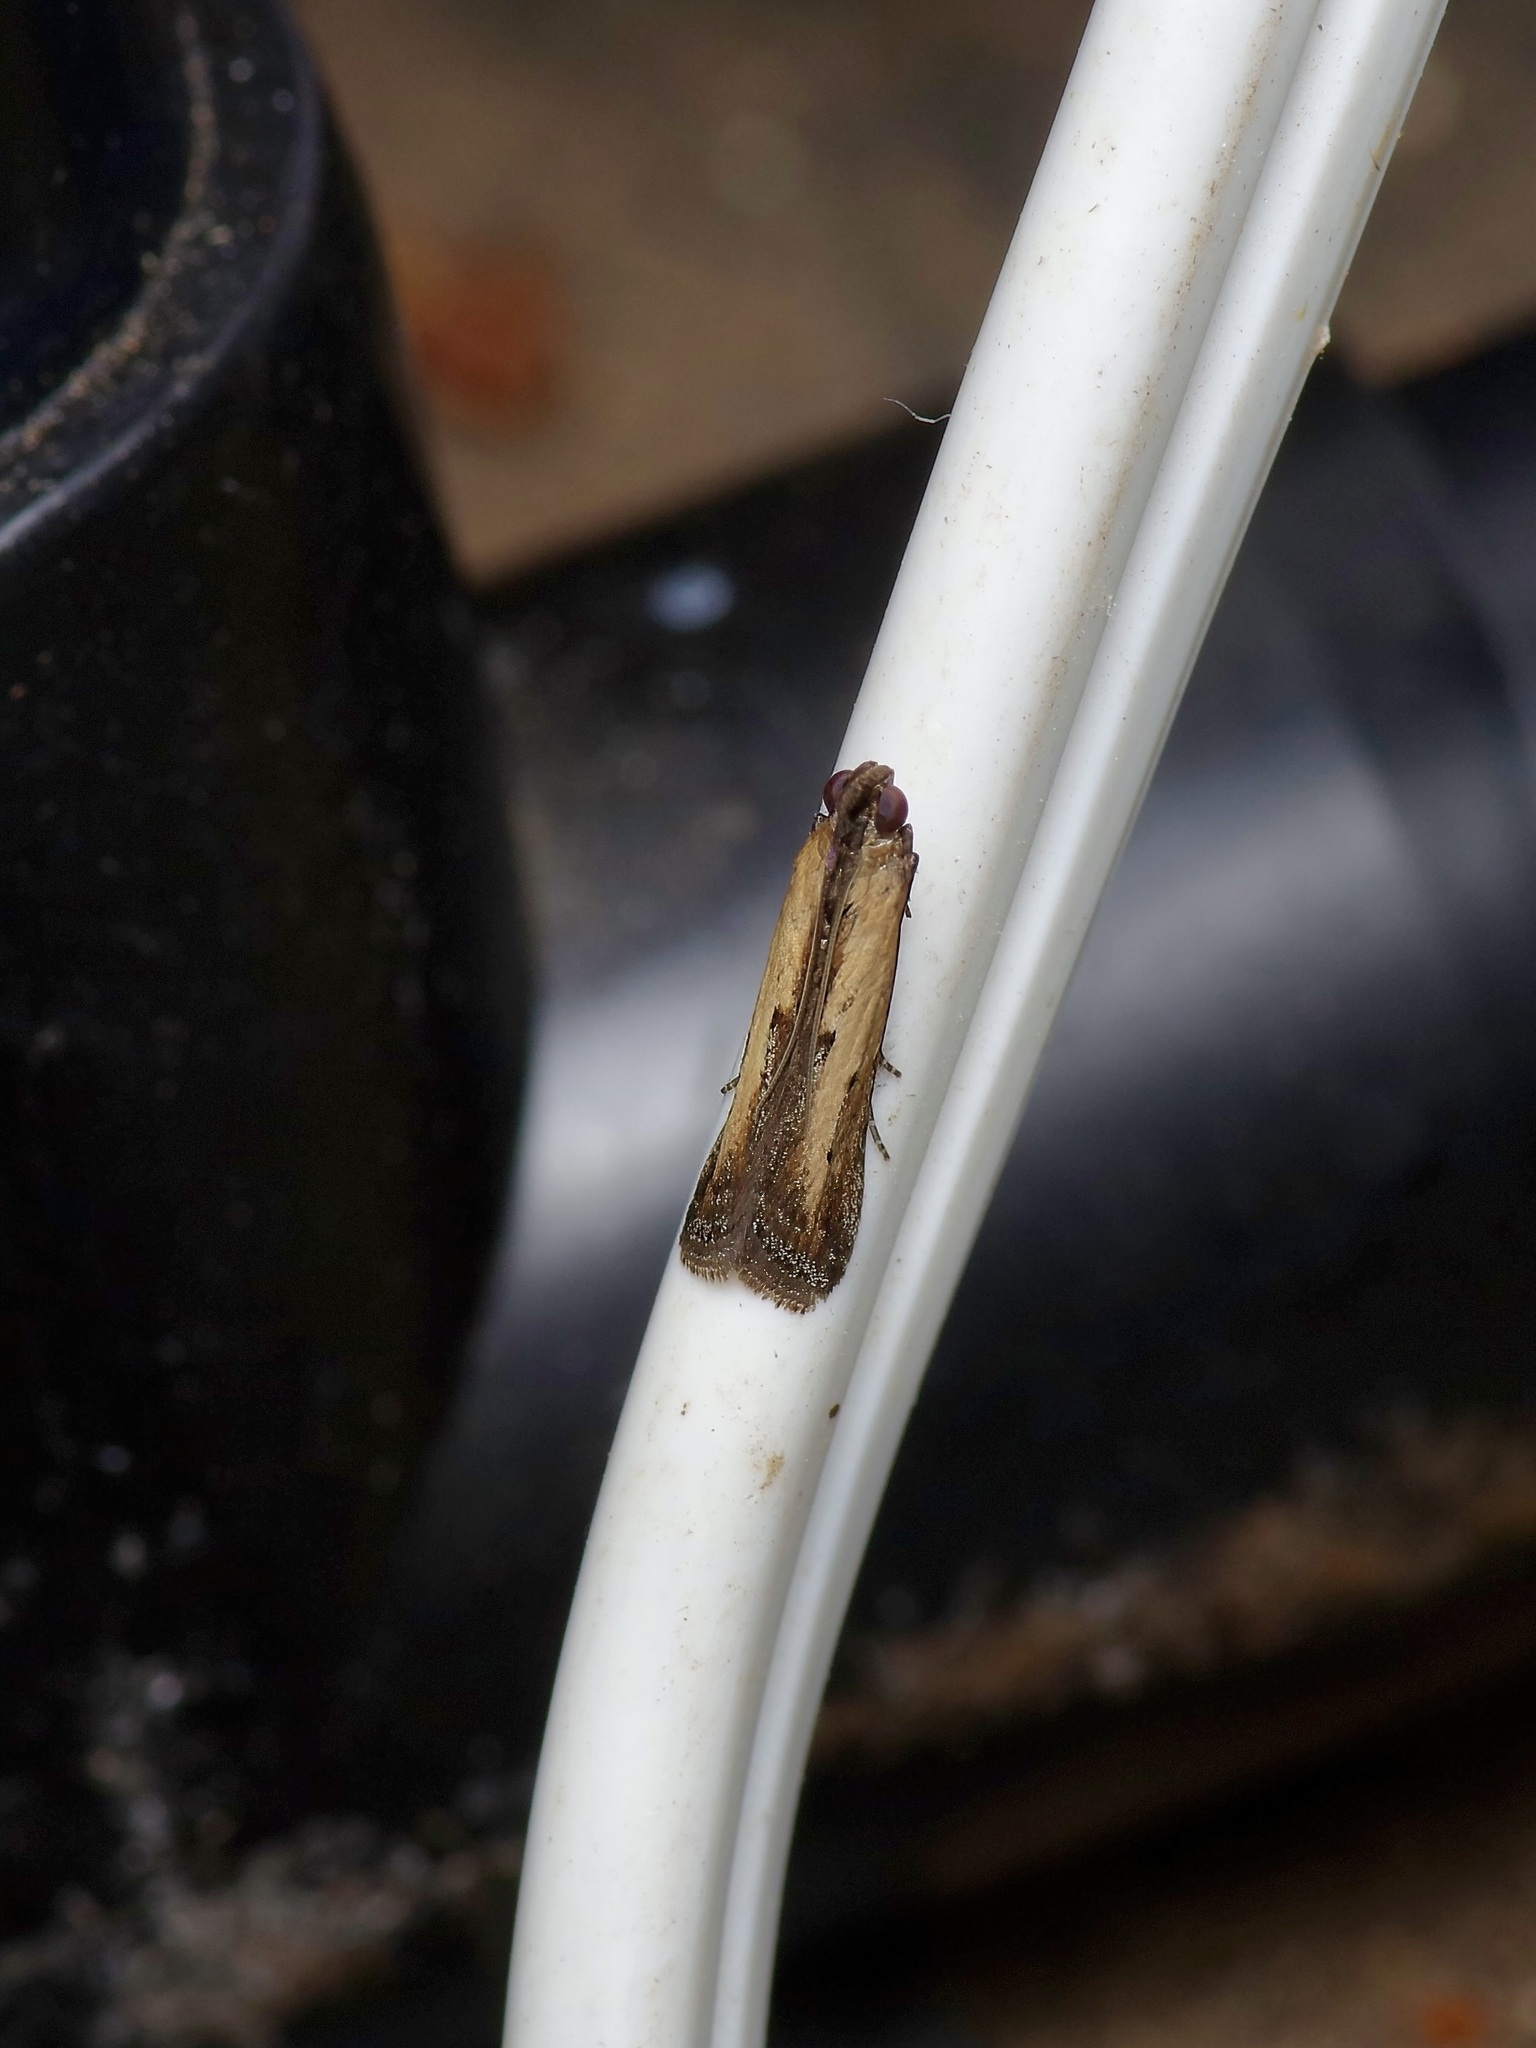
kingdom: Animalia
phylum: Arthropoda
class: Insecta
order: Lepidoptera
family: Pyralidae
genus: Elasmopalpus
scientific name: Elasmopalpus lignosella
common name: Lesser cornstalk borer
